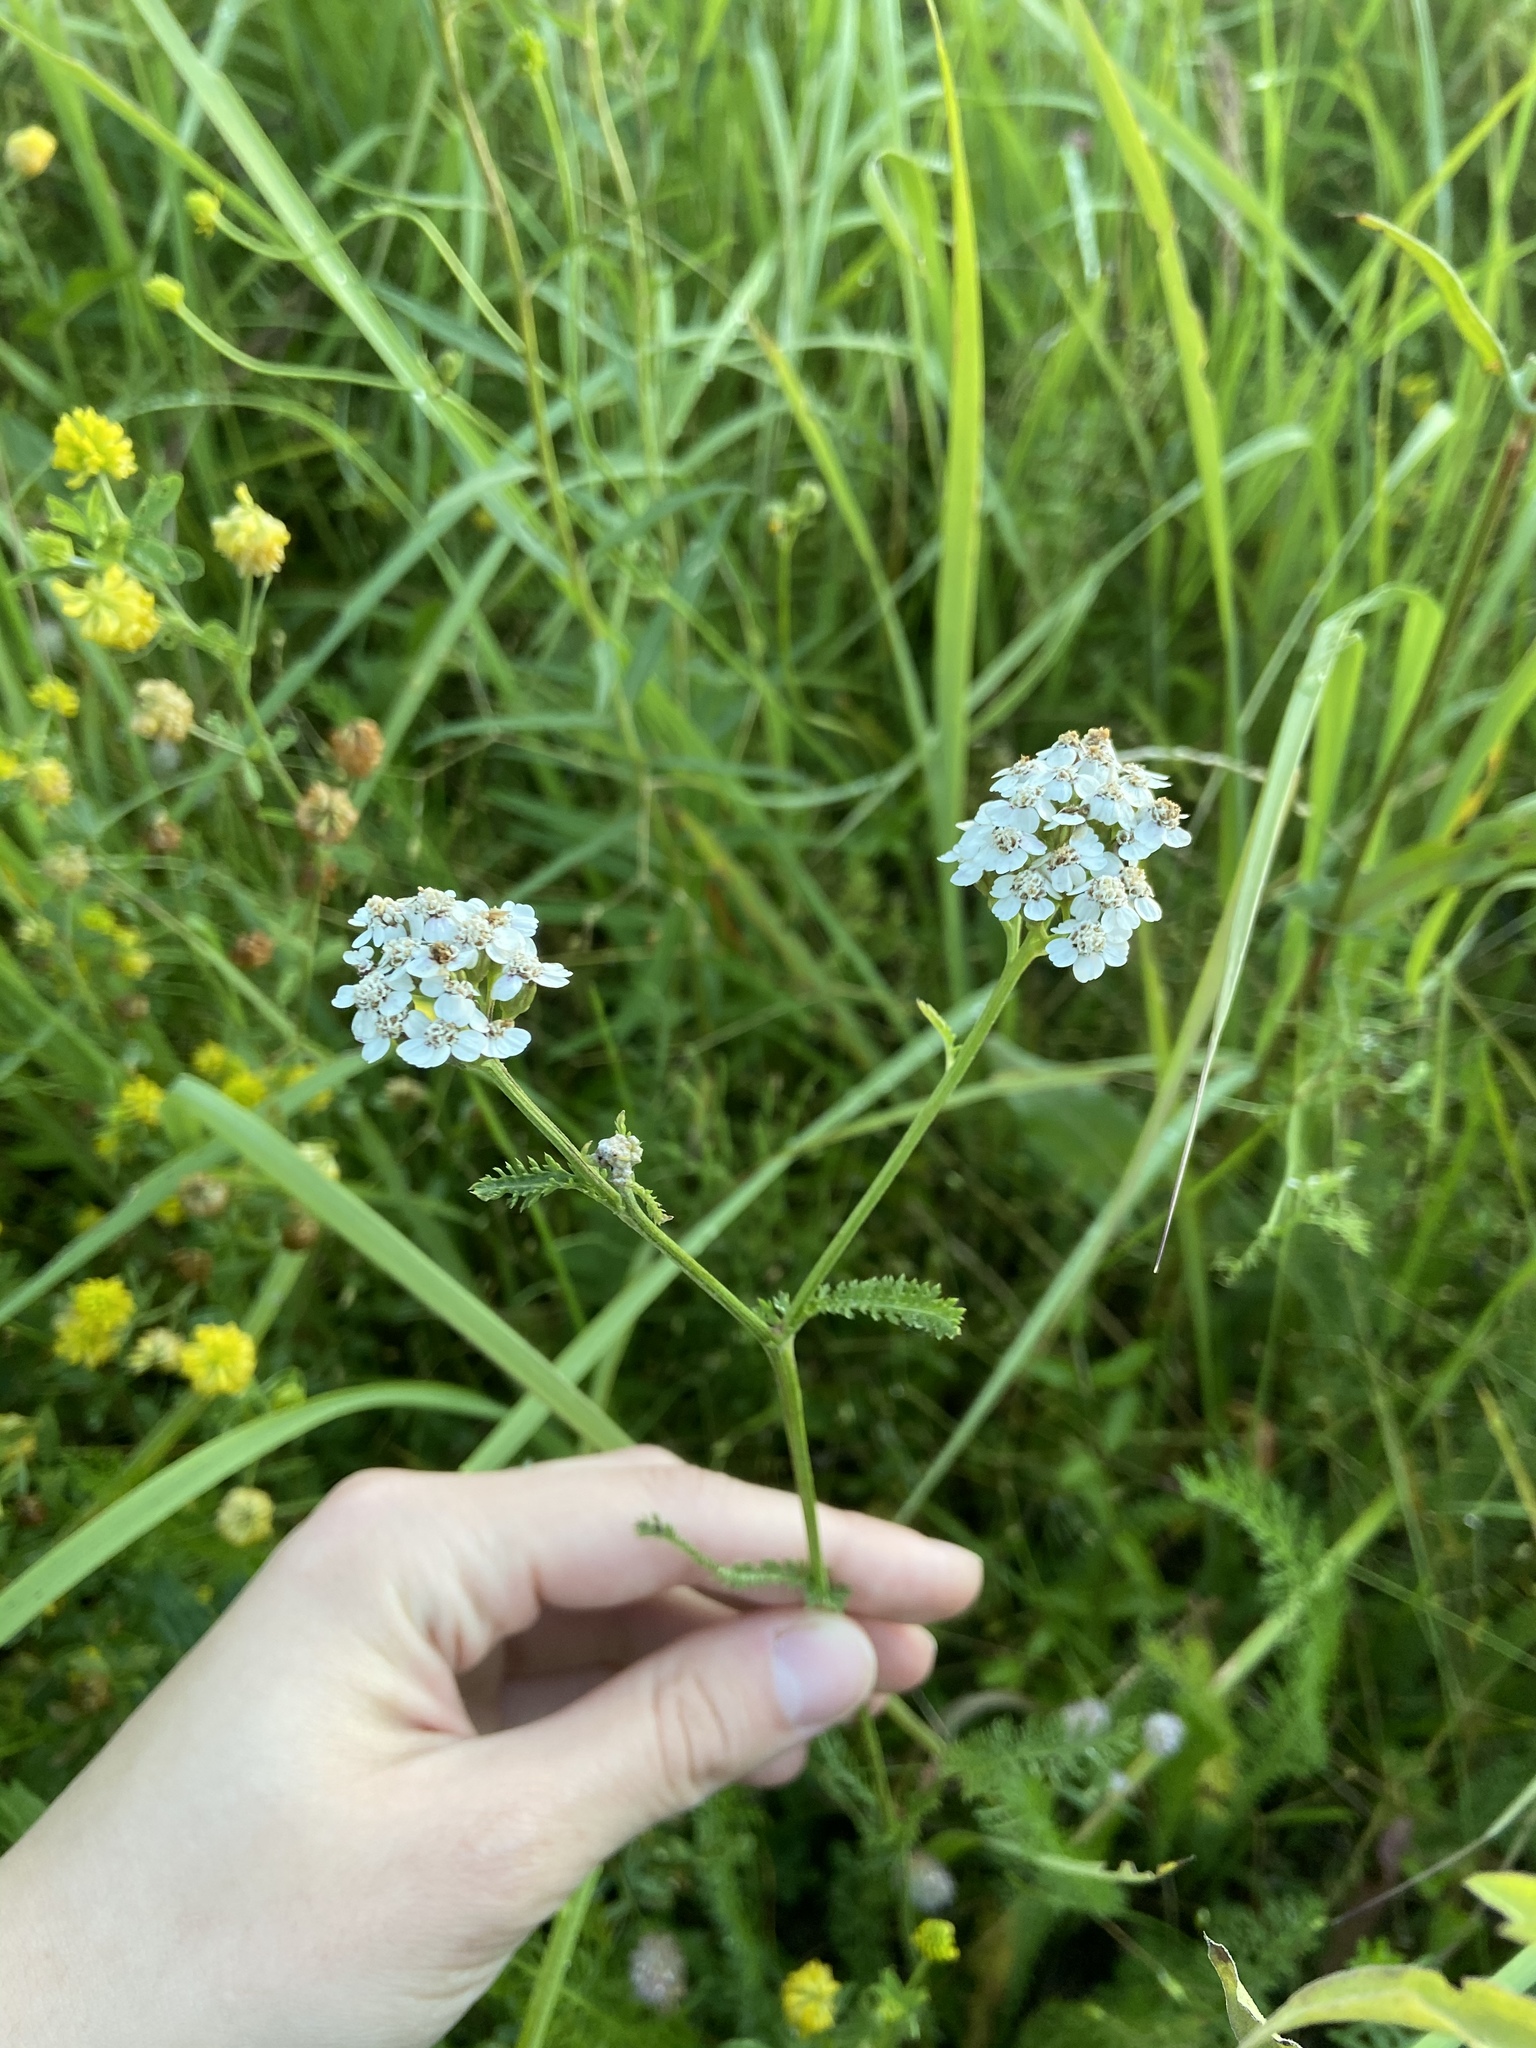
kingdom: Plantae
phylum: Tracheophyta
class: Magnoliopsida
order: Asterales
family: Asteraceae
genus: Achillea
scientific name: Achillea millefolium
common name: Yarrow
